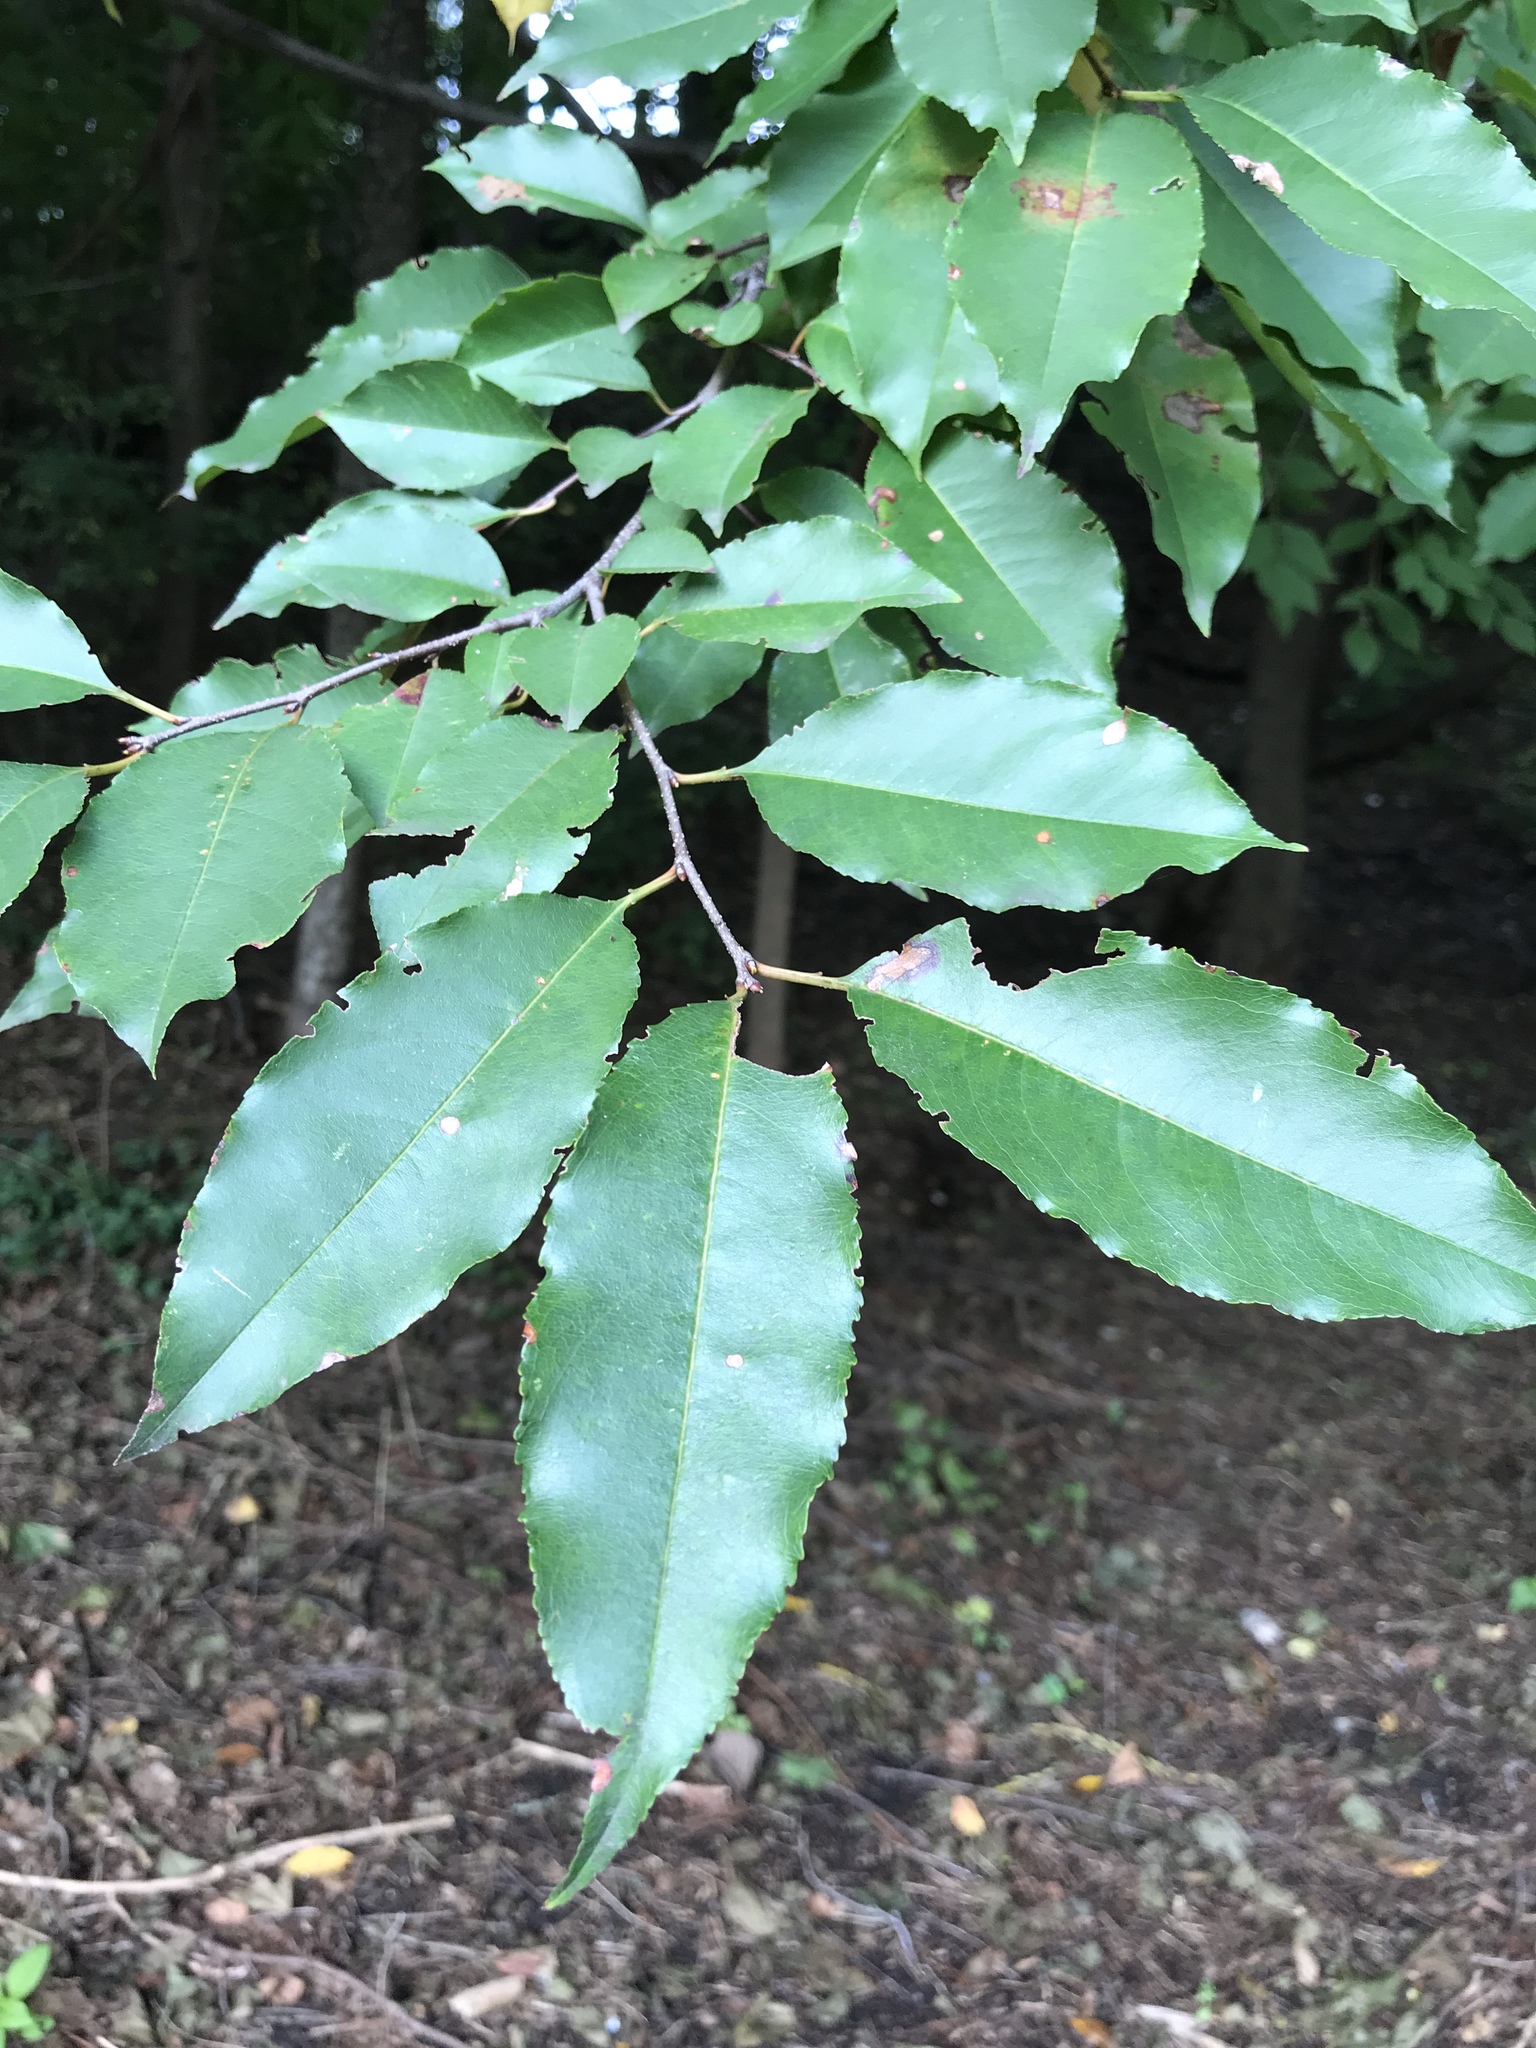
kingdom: Plantae
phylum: Tracheophyta
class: Magnoliopsida
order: Rosales
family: Rosaceae
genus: Prunus
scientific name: Prunus serotina
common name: Black cherry
